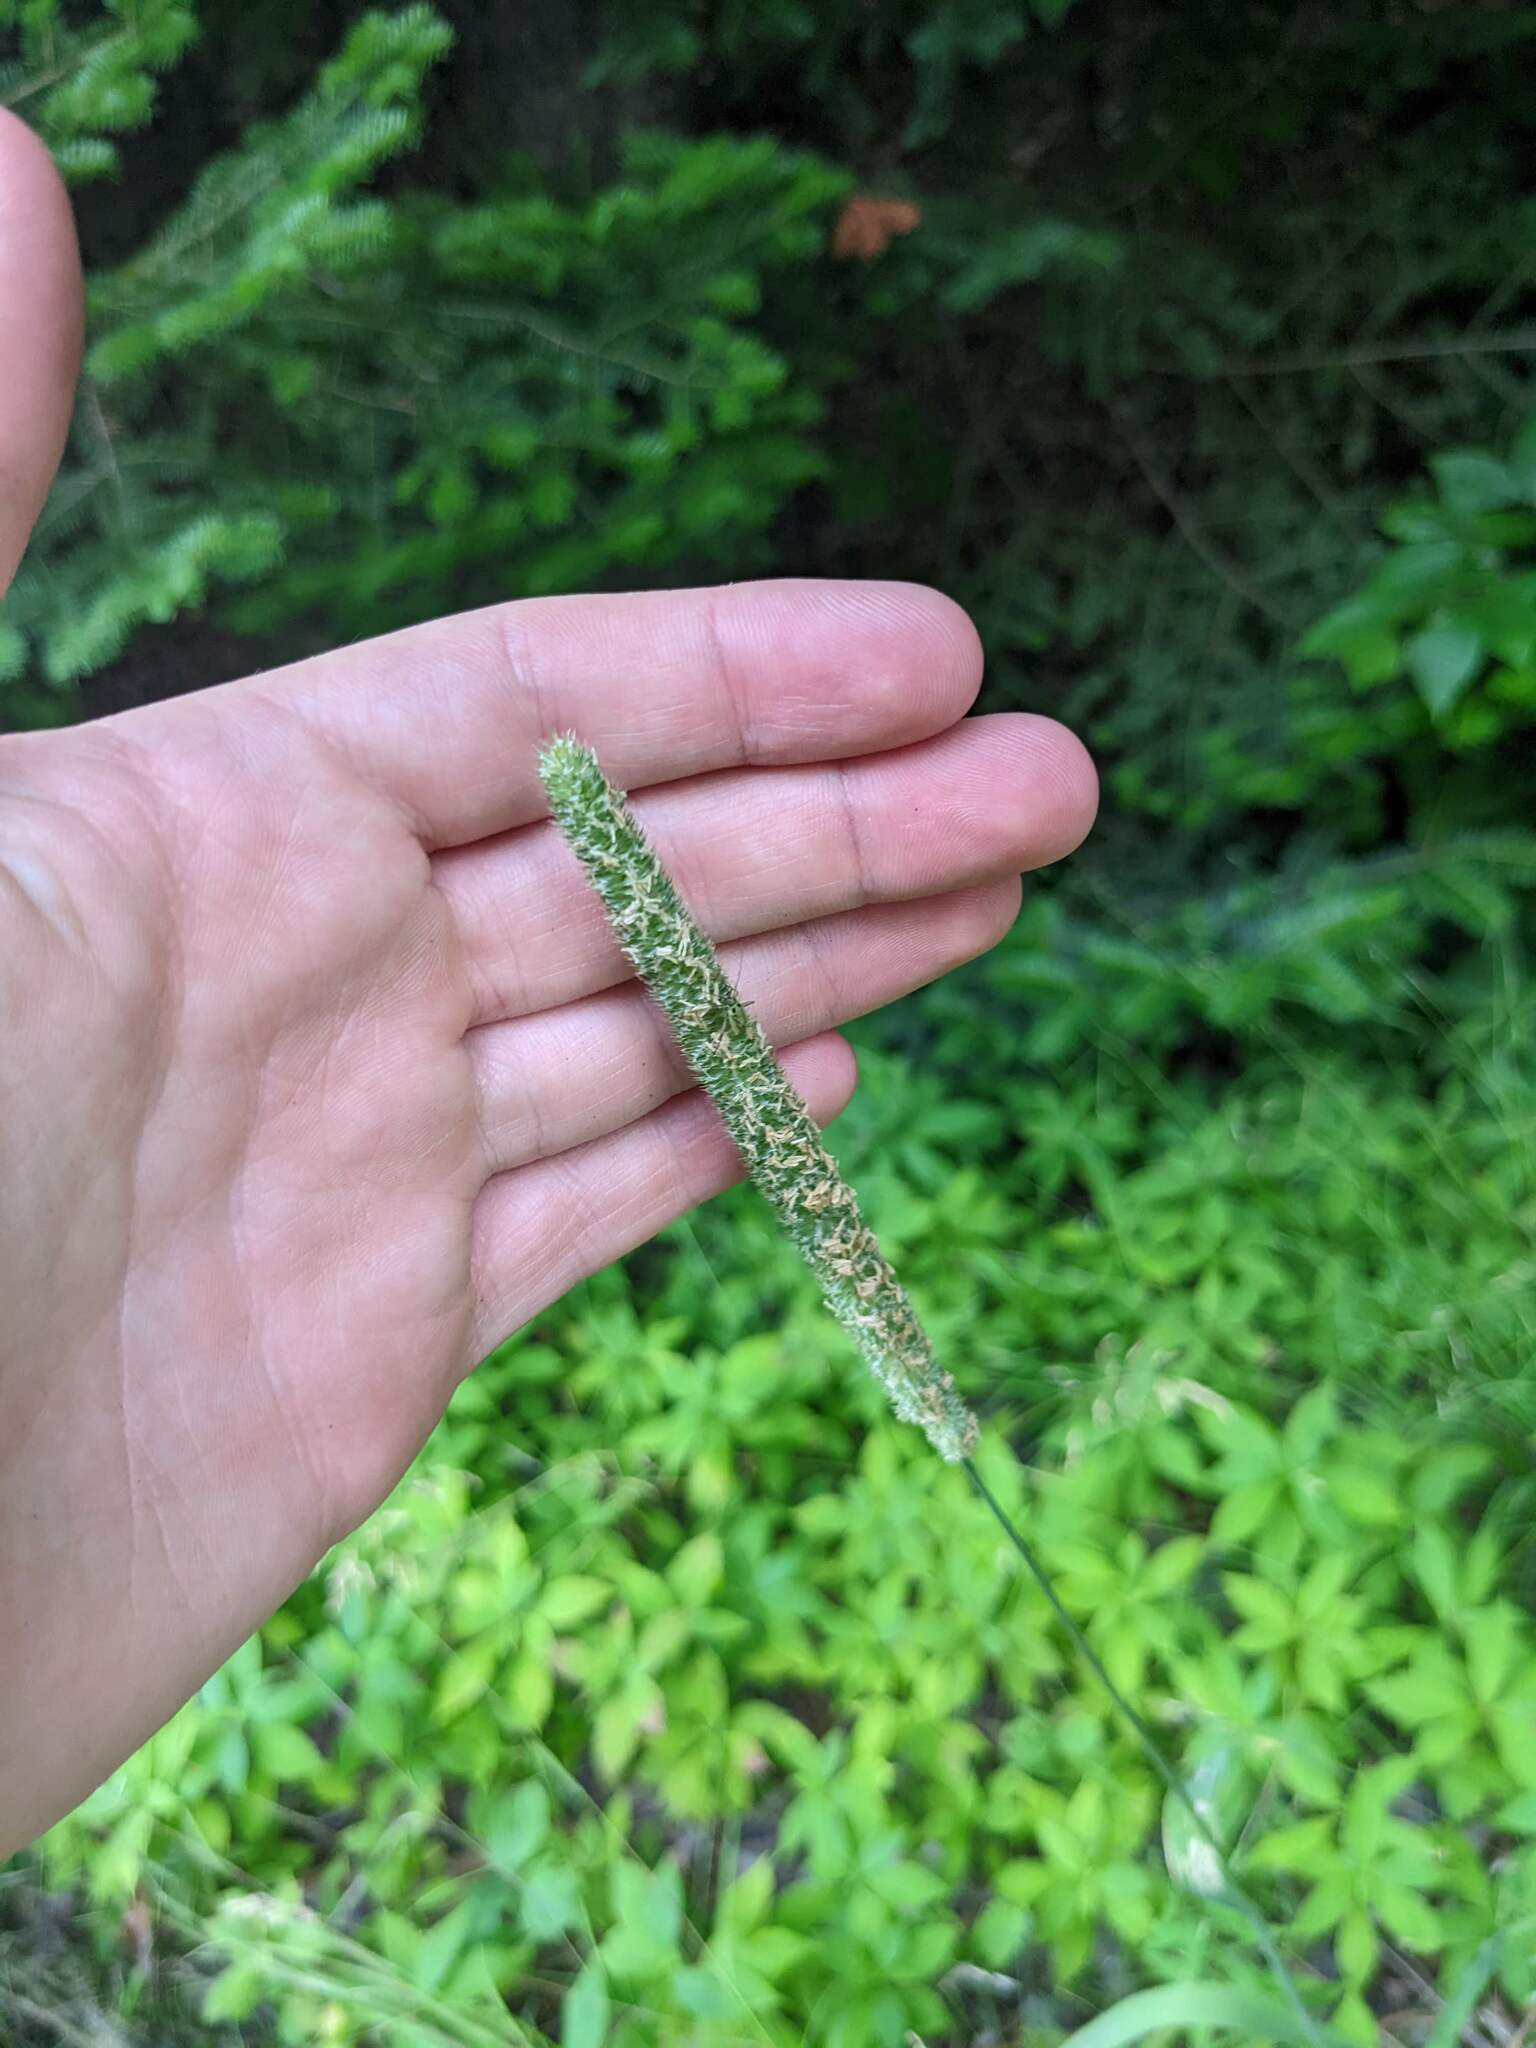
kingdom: Plantae
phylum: Tracheophyta
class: Liliopsida
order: Poales
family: Poaceae
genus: Phleum
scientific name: Phleum pratense
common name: Timothy grass
